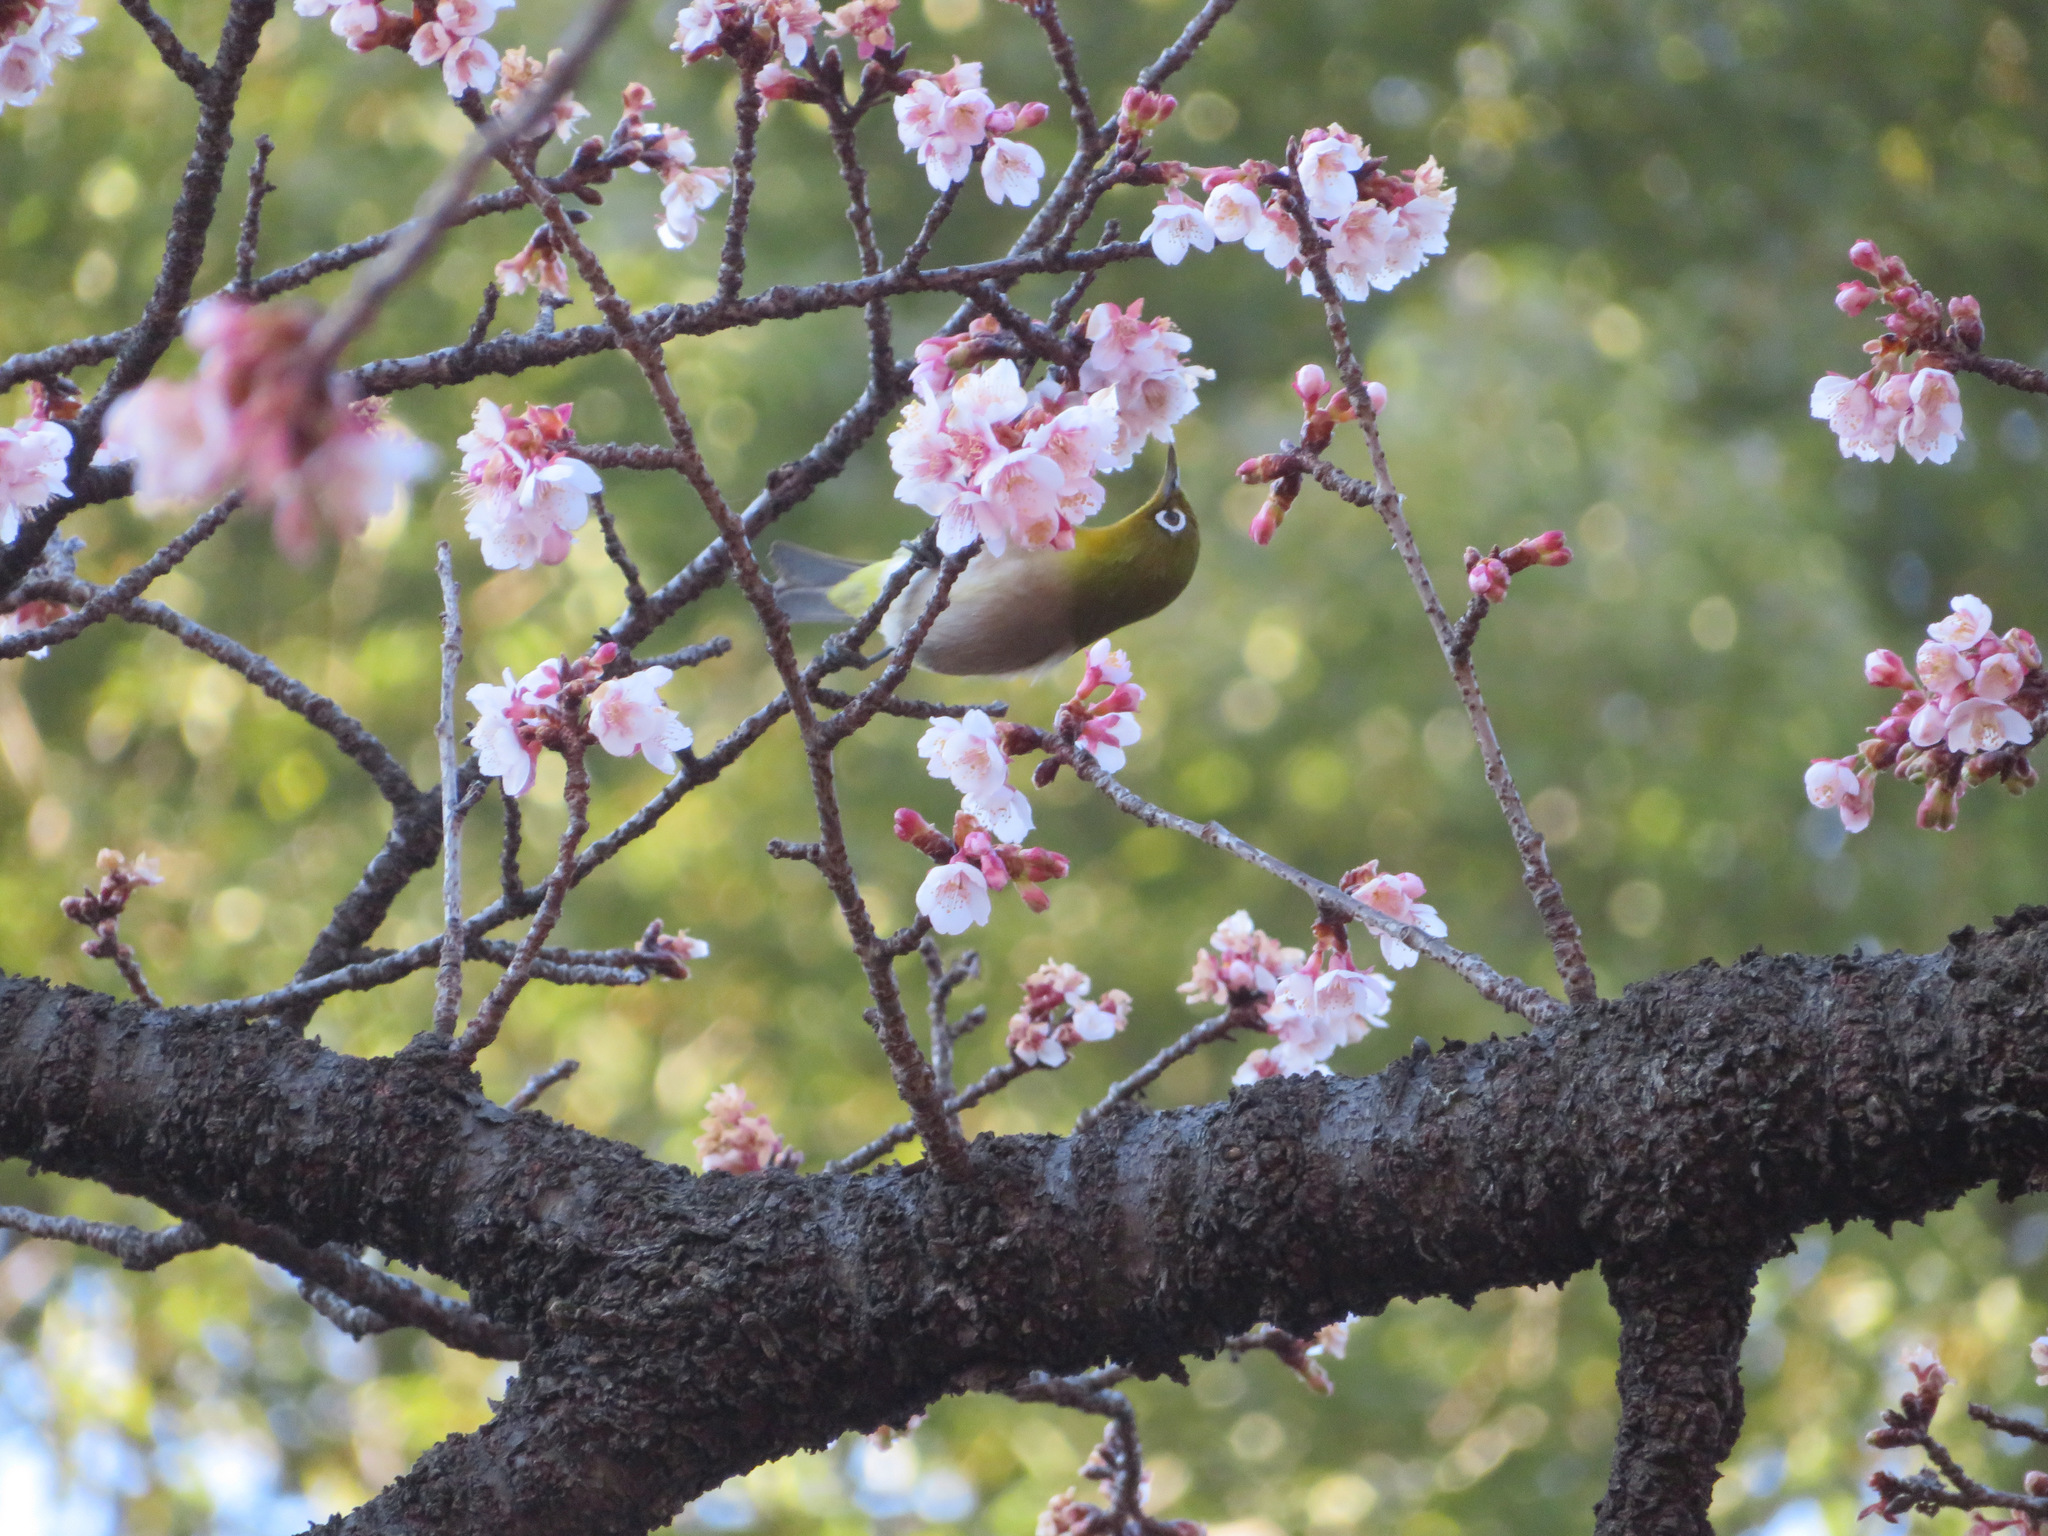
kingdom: Animalia
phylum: Chordata
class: Aves
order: Passeriformes
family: Zosteropidae
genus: Zosterops
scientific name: Zosterops japonicus
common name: Japanese white-eye
